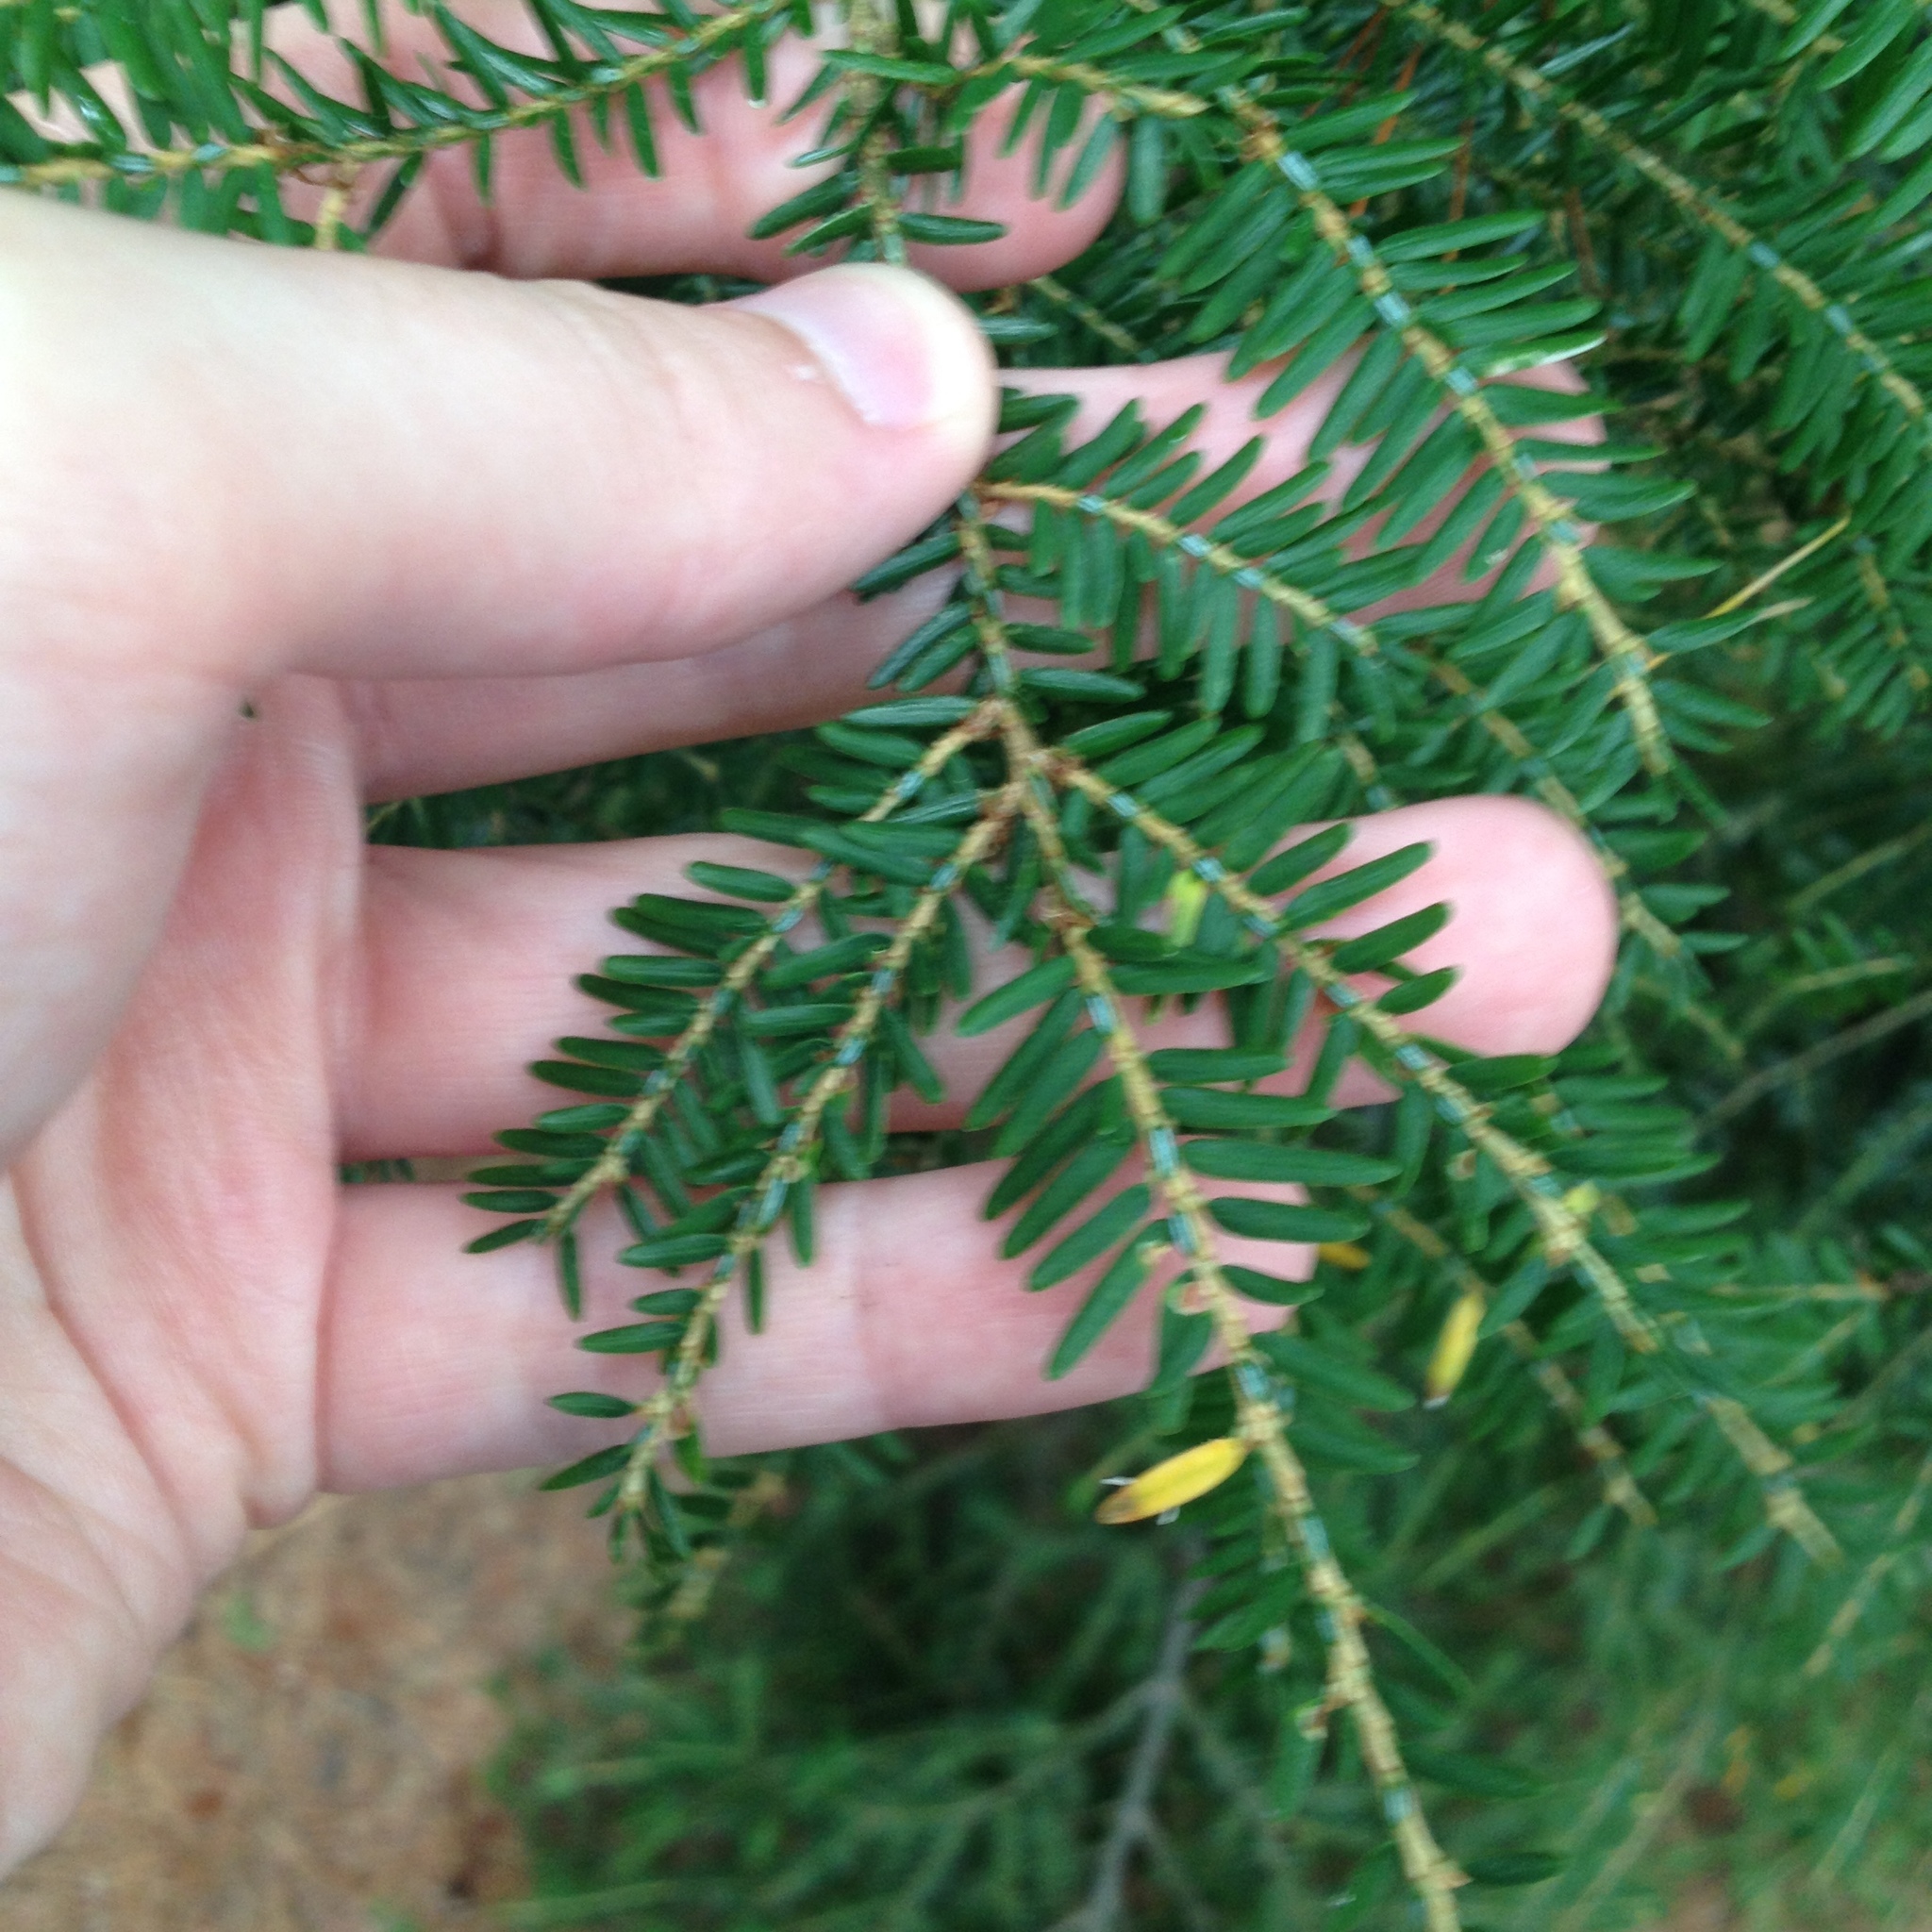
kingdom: Plantae
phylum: Tracheophyta
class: Pinopsida
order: Pinales
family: Pinaceae
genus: Tsuga
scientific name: Tsuga canadensis
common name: Eastern hemlock
